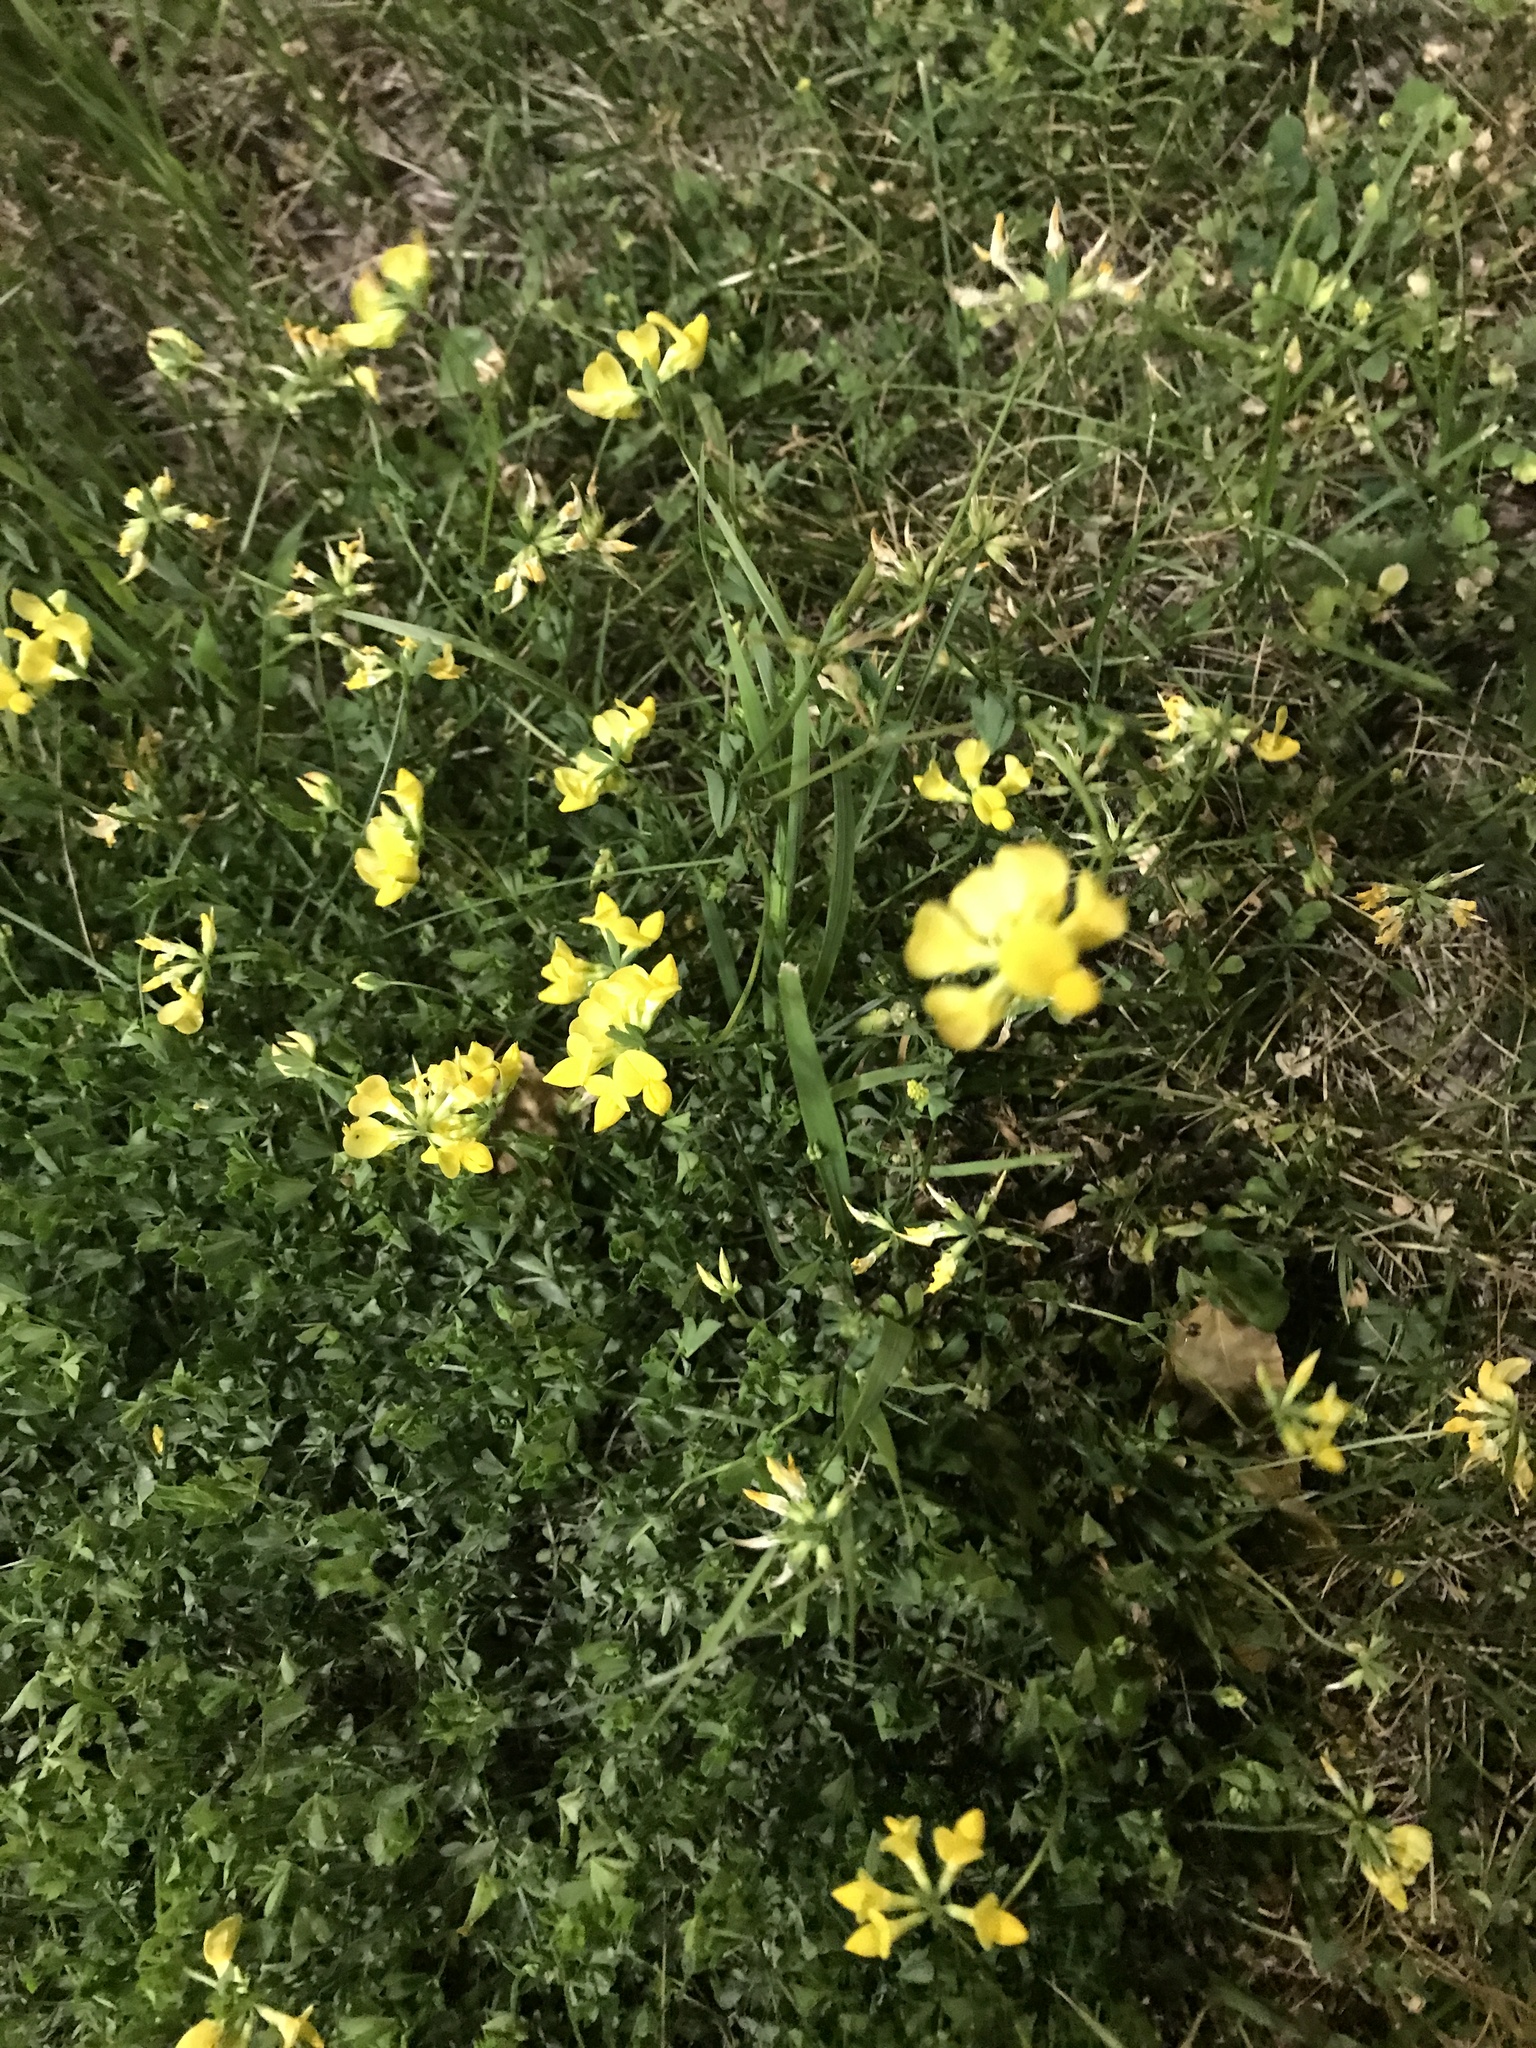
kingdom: Plantae
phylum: Tracheophyta
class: Magnoliopsida
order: Fabales
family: Fabaceae
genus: Lotus
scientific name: Lotus corniculatus
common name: Common bird's-foot-trefoil
